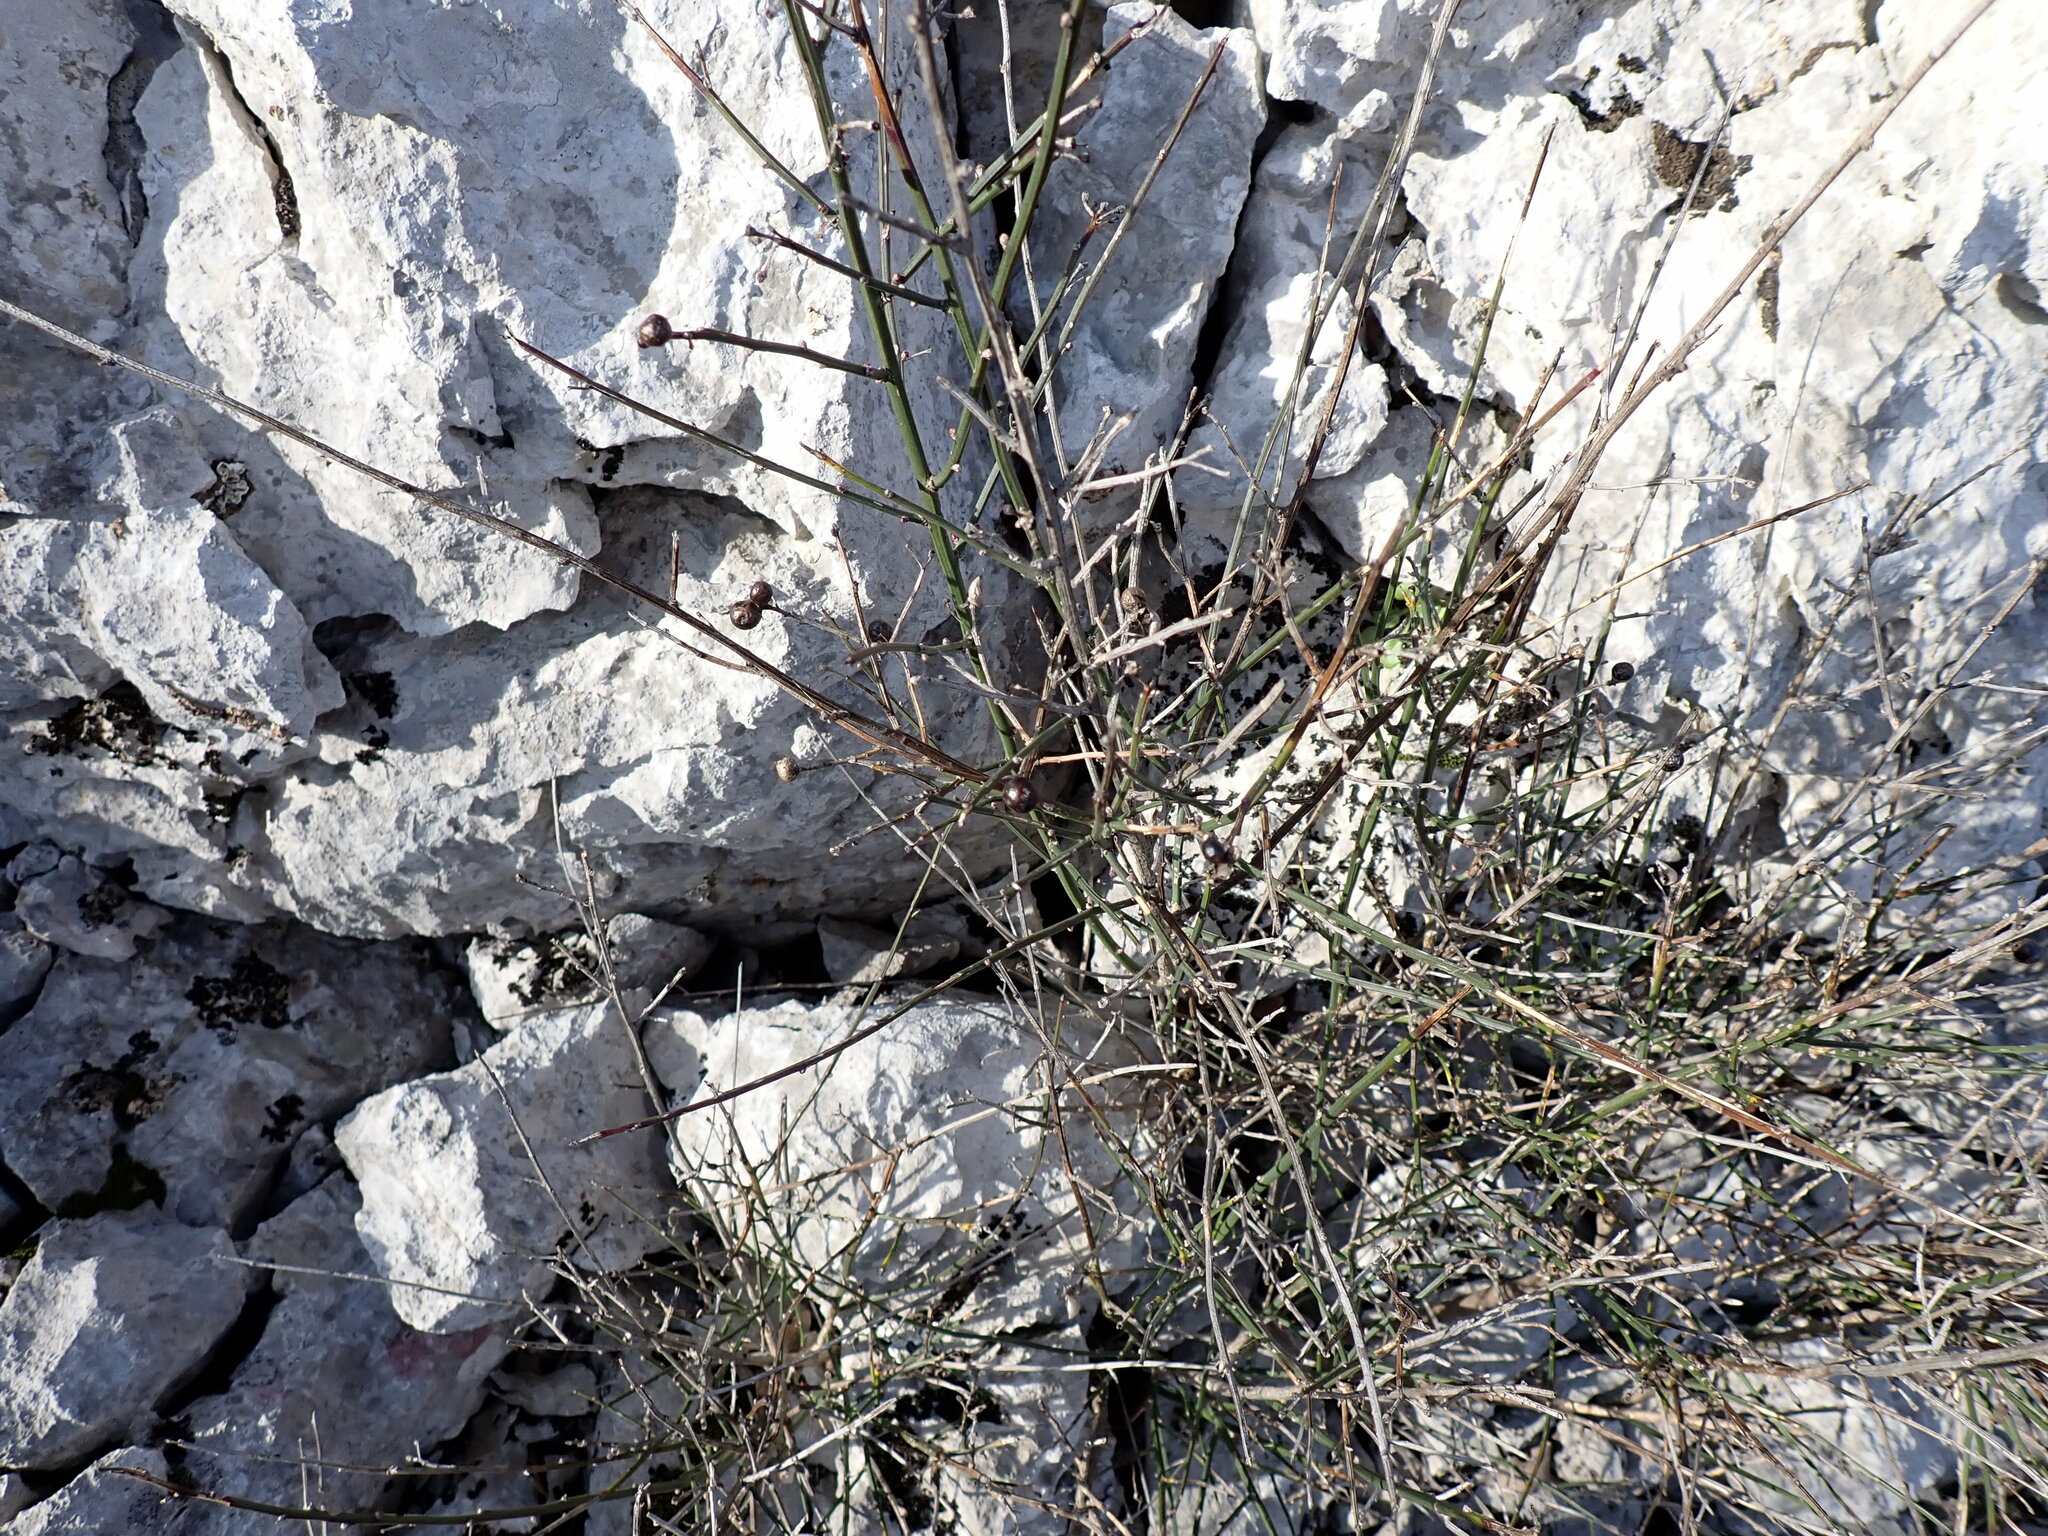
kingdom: Plantae
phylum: Tracheophyta
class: Magnoliopsida
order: Lamiales
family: Oleaceae
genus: Chrysojasminum
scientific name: Chrysojasminum fruticans
